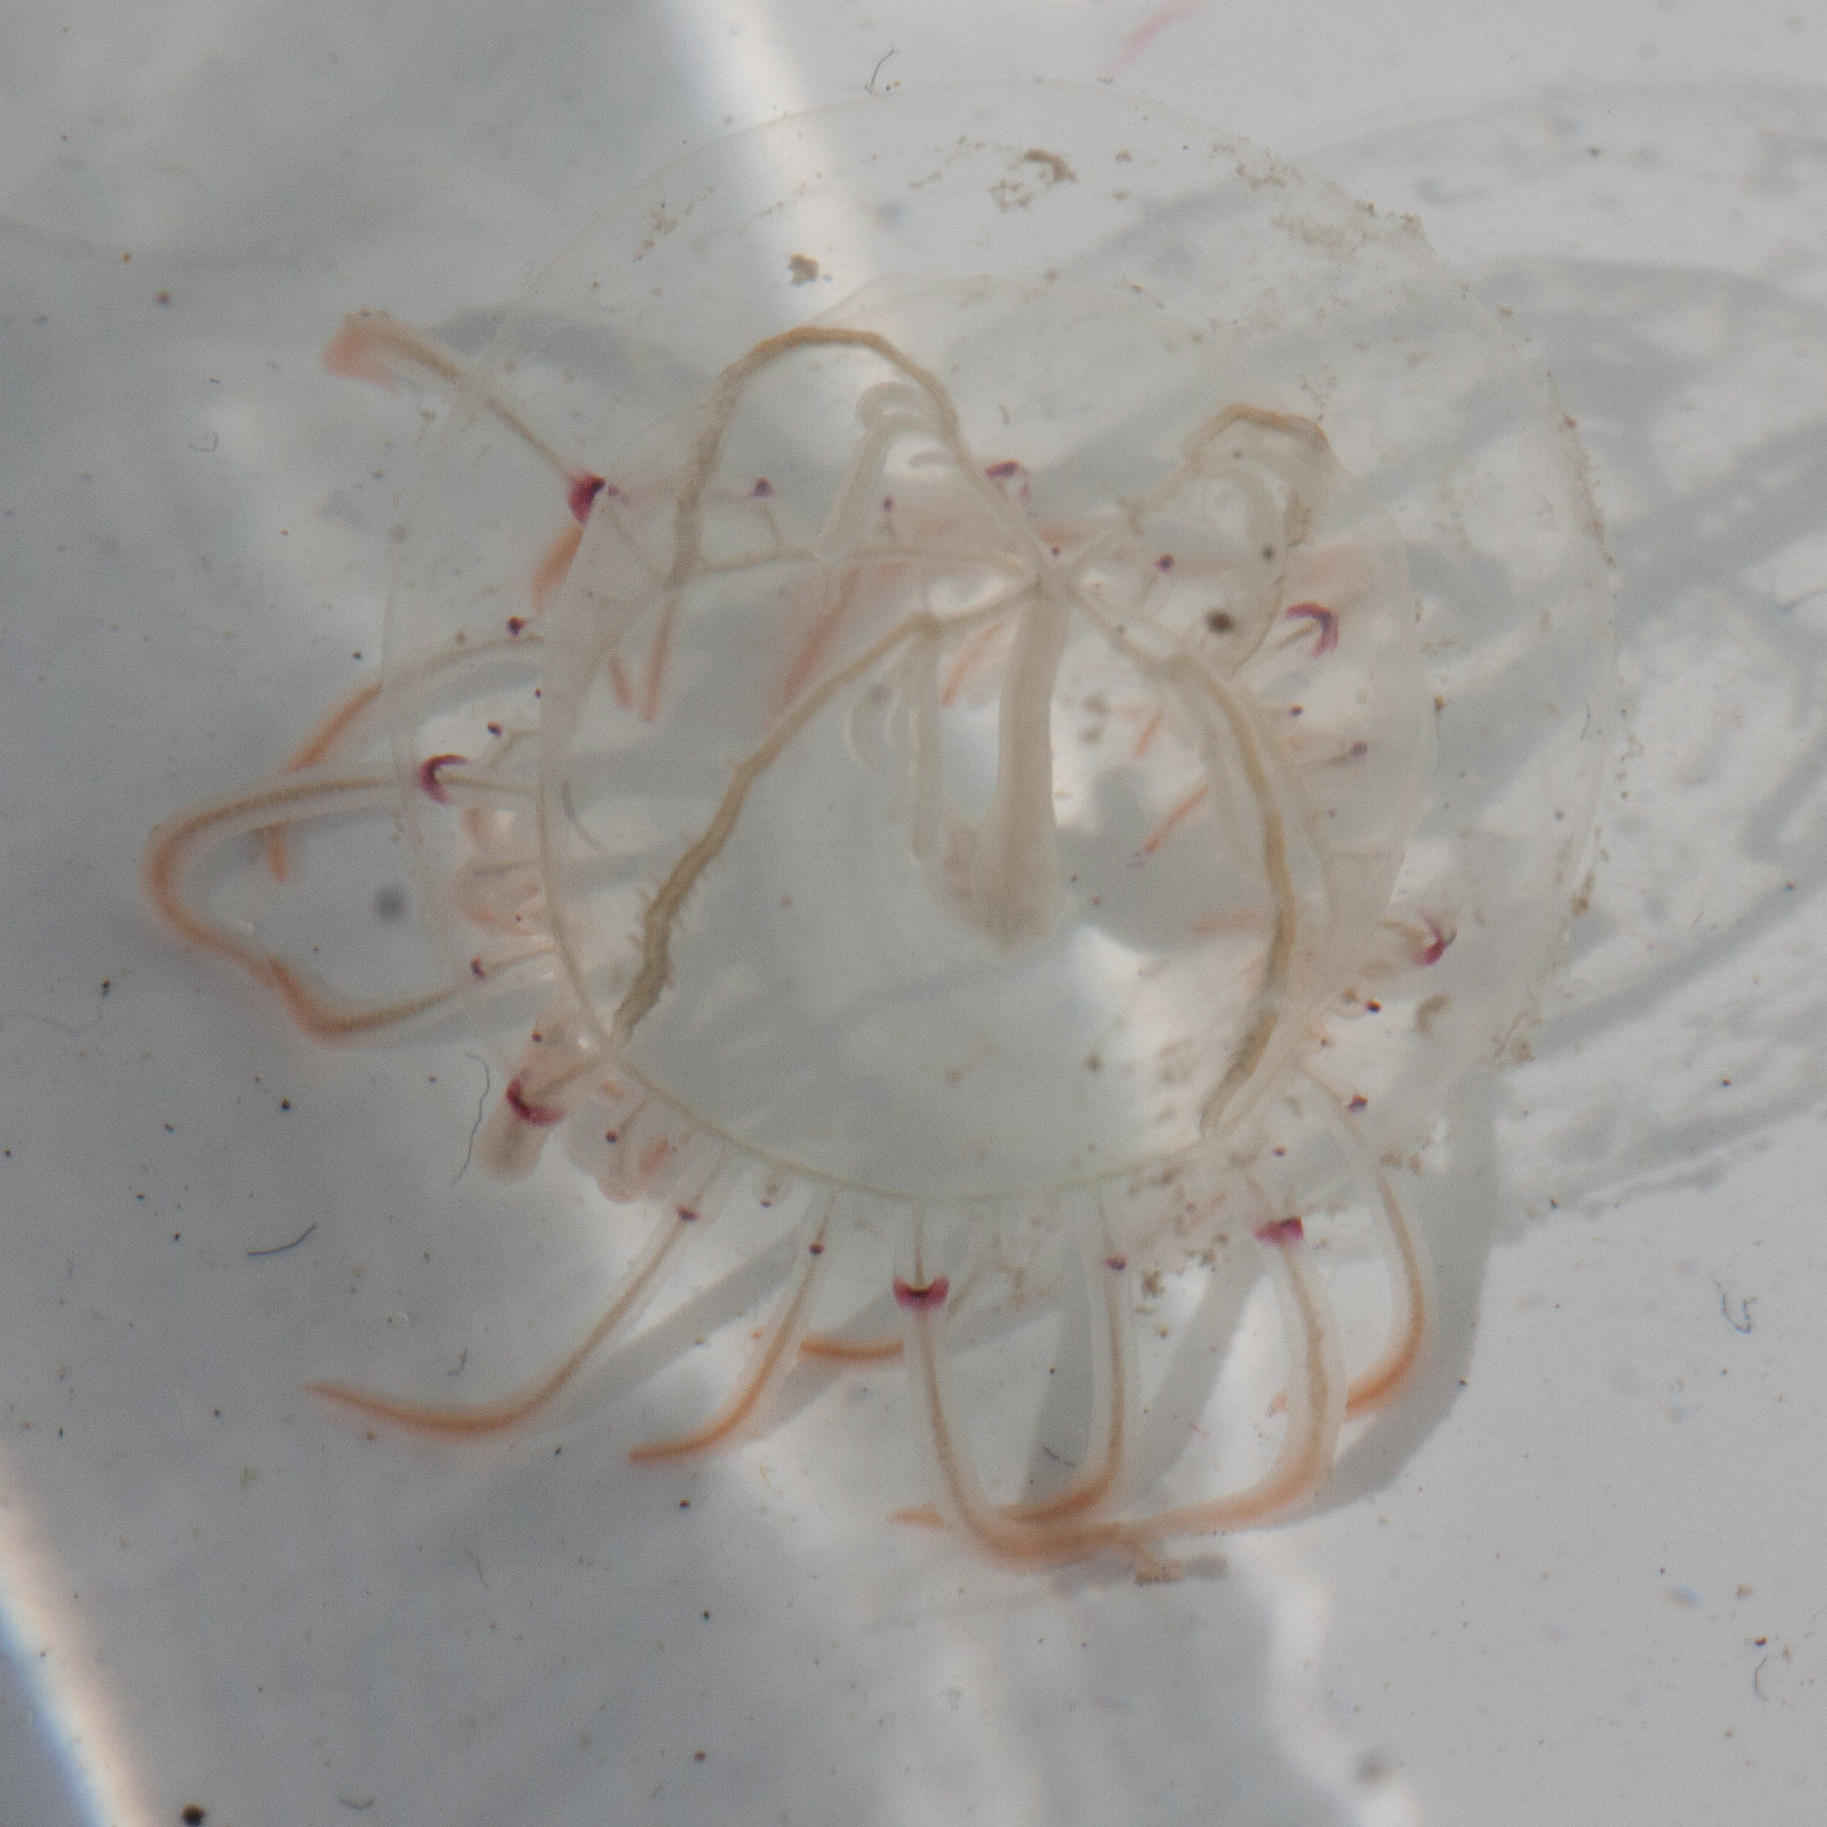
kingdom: Animalia
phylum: Cnidaria
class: Hydrozoa
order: Anthoathecata
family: Corynidae
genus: Polyorchis
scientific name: Polyorchis penicillatus
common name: Penicillate jellyfish
